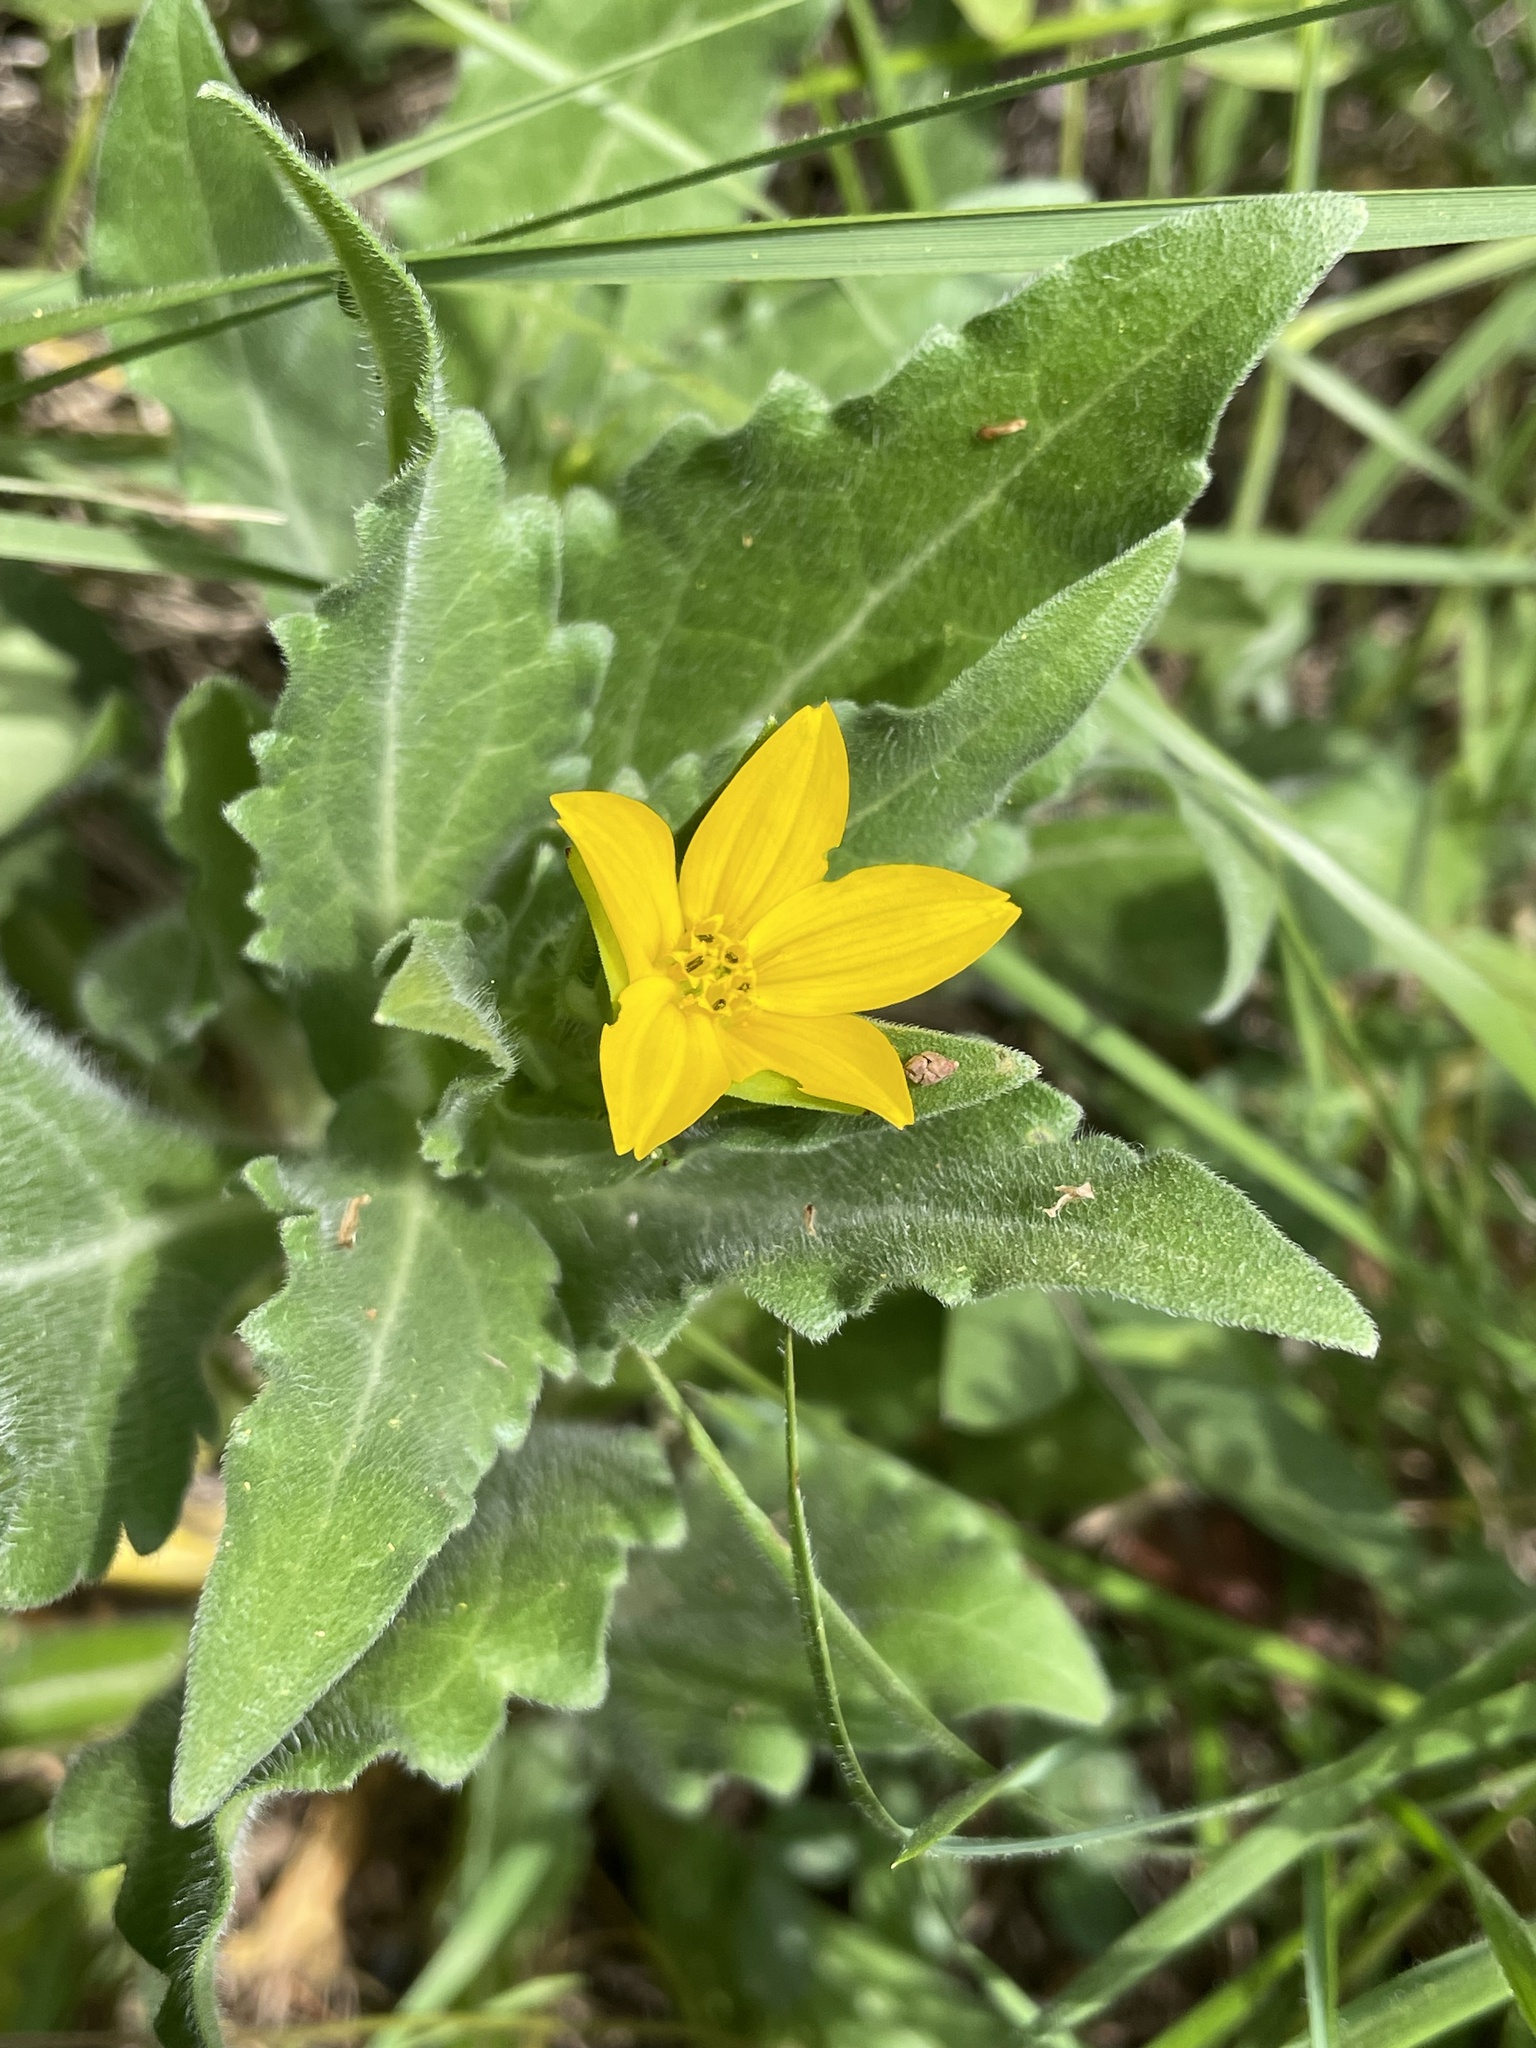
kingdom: Plantae
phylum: Tracheophyta
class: Magnoliopsida
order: Asterales
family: Asteraceae
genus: Lindheimera
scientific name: Lindheimera texana
